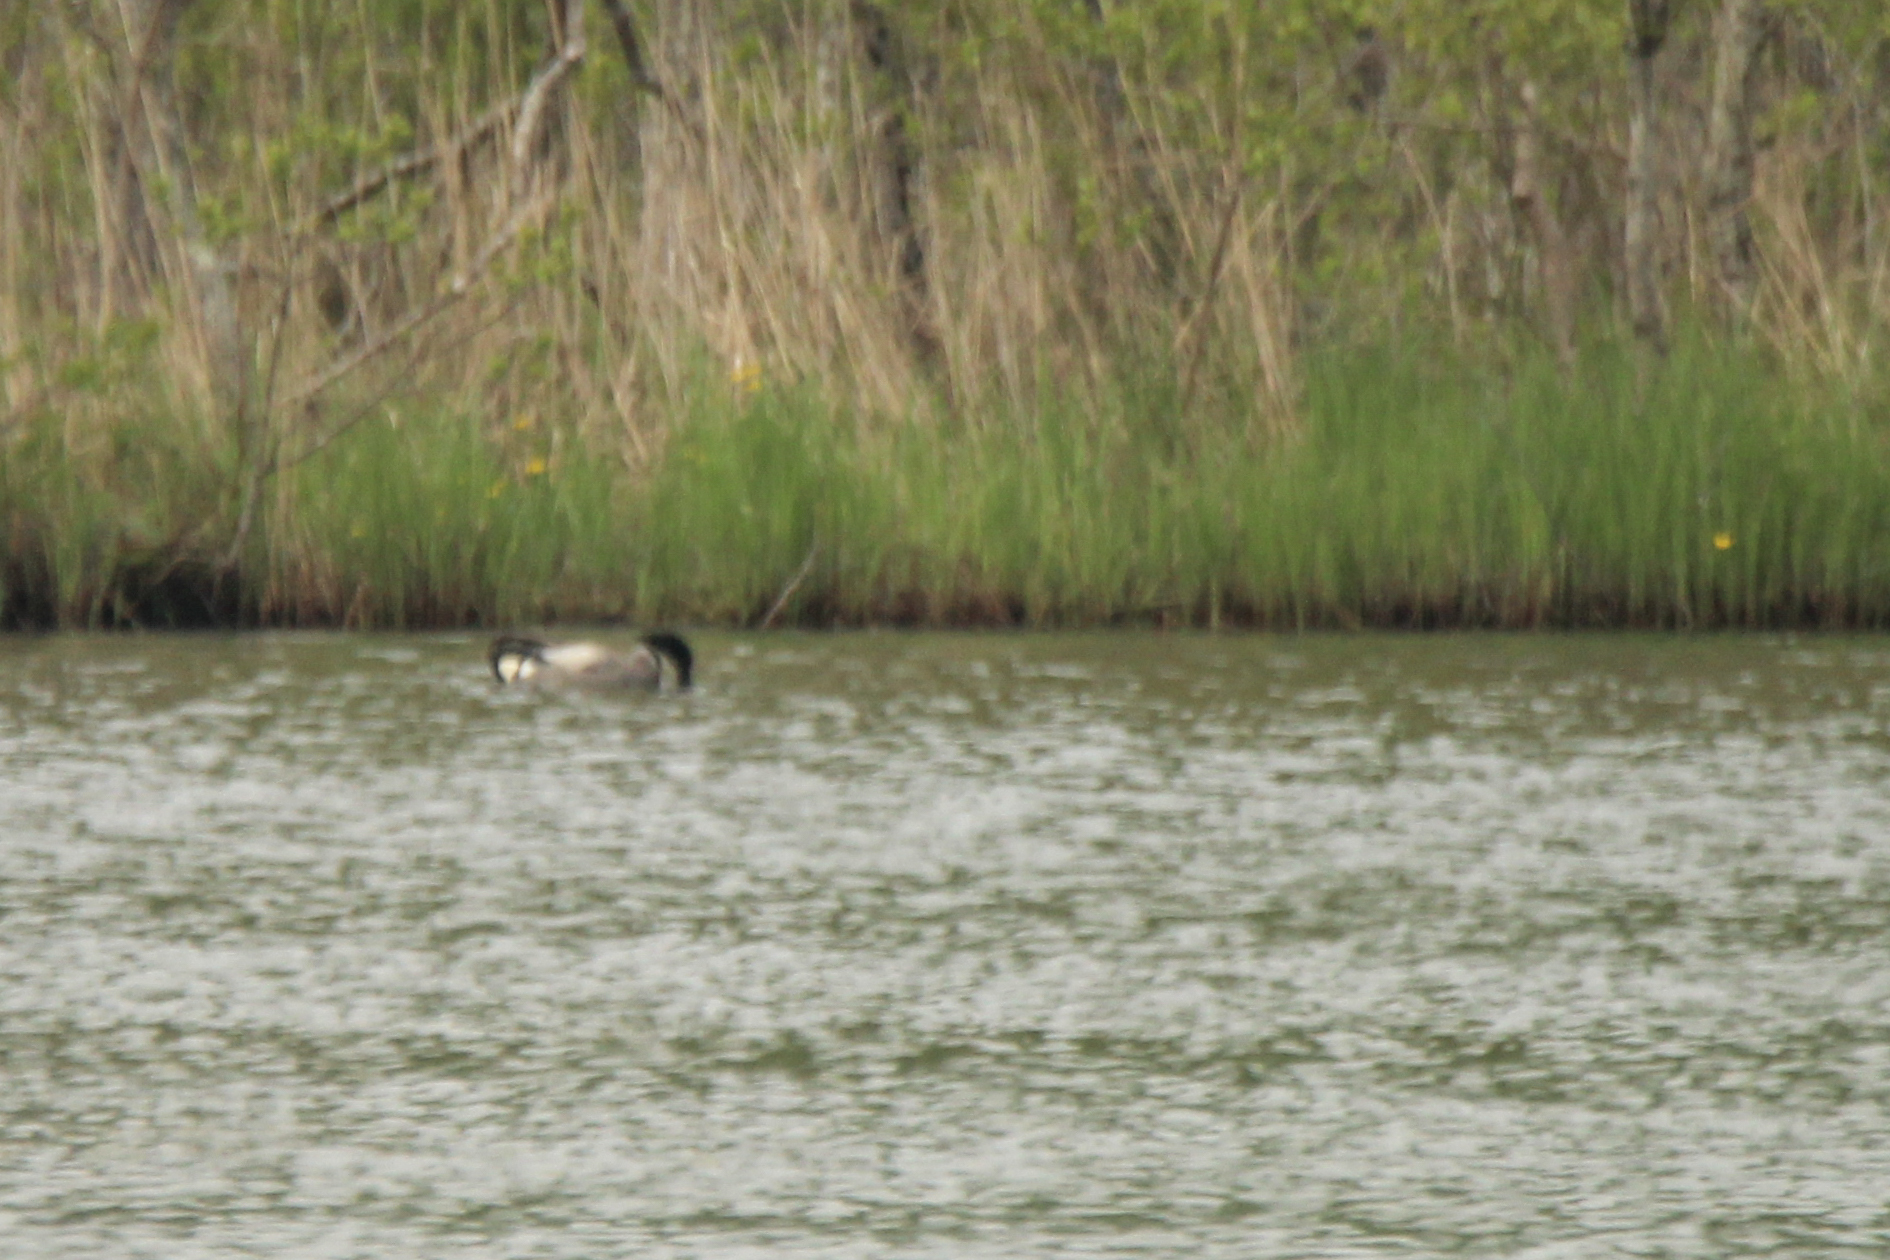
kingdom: Animalia
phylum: Chordata
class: Aves
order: Anseriformes
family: Anatidae
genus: Mareca
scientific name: Mareca falcata
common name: Falcated duck
